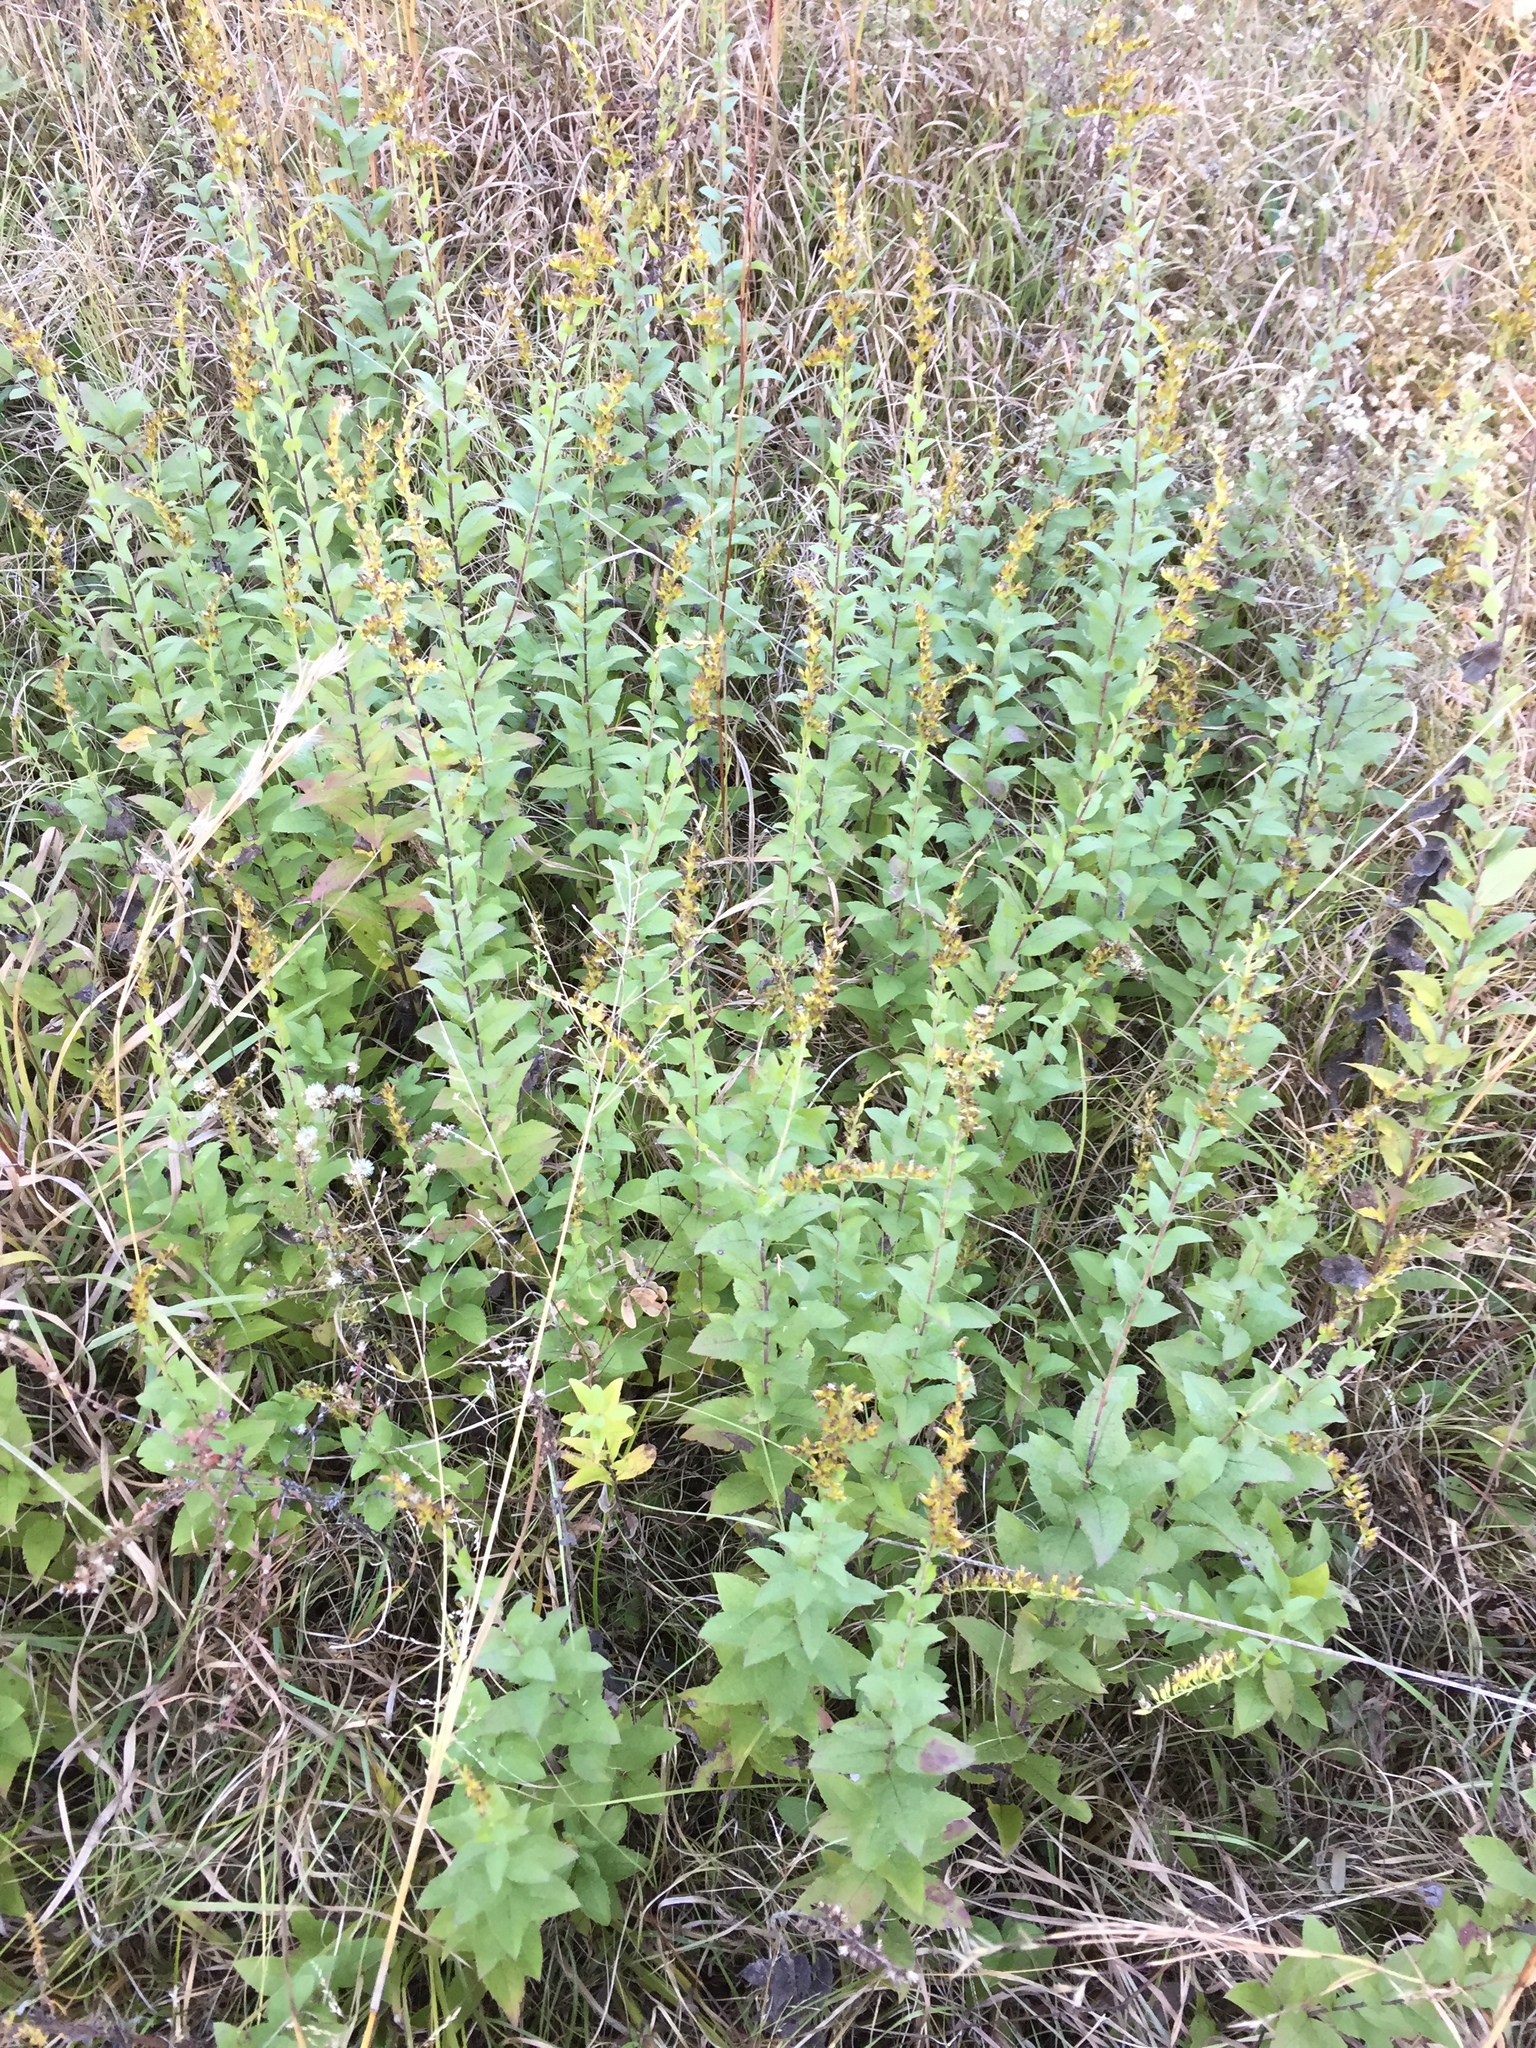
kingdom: Plantae
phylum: Tracheophyta
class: Magnoliopsida
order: Asterales
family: Asteraceae
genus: Solidago
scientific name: Solidago rugosa
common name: Rough-stemmed goldenrod
